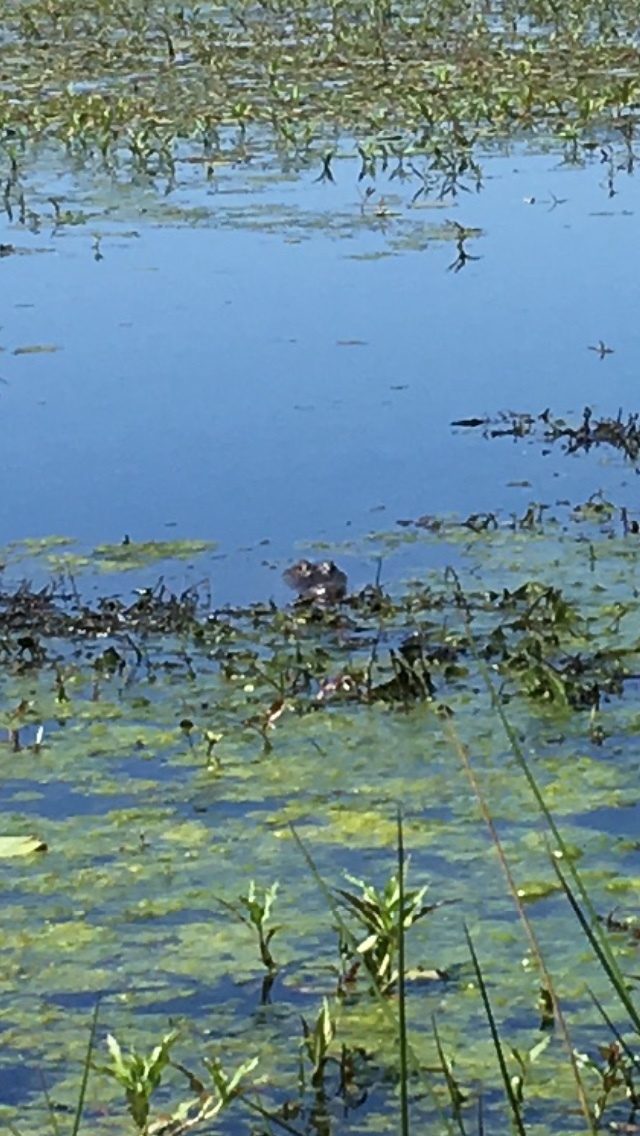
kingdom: Animalia
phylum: Chordata
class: Crocodylia
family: Alligatoridae
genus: Alligator
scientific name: Alligator mississippiensis
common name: American alligator
